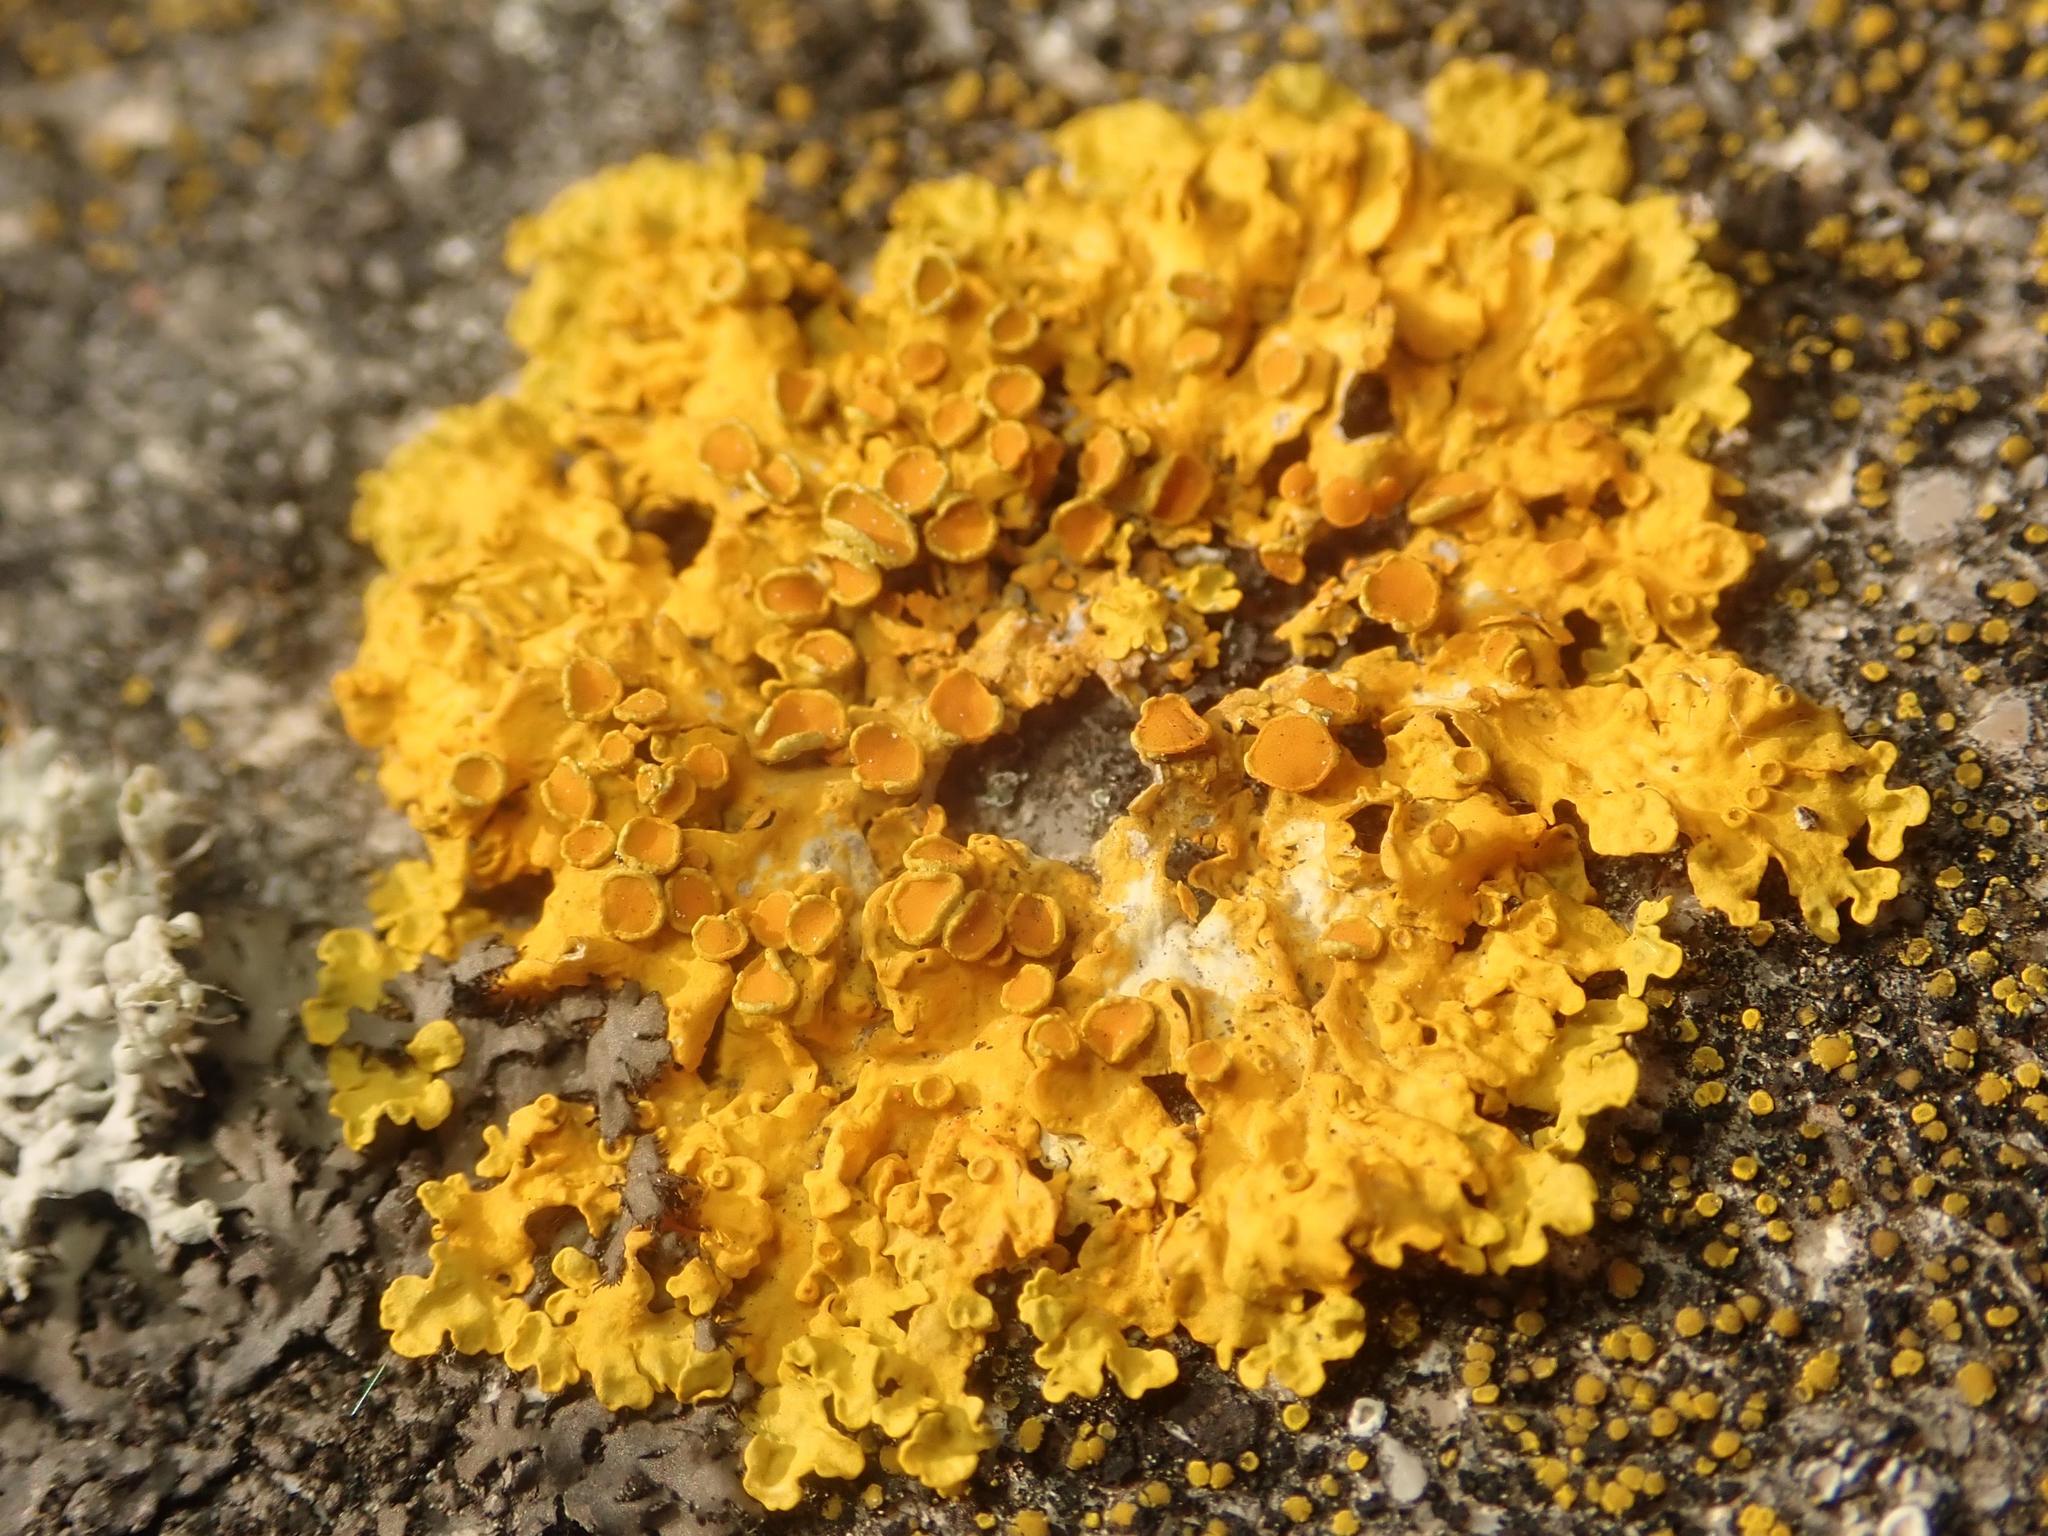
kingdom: Fungi
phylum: Ascomycota
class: Lecanoromycetes
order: Teloschistales
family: Teloschistaceae
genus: Xanthoria
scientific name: Xanthoria parietina
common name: Common orange lichen
